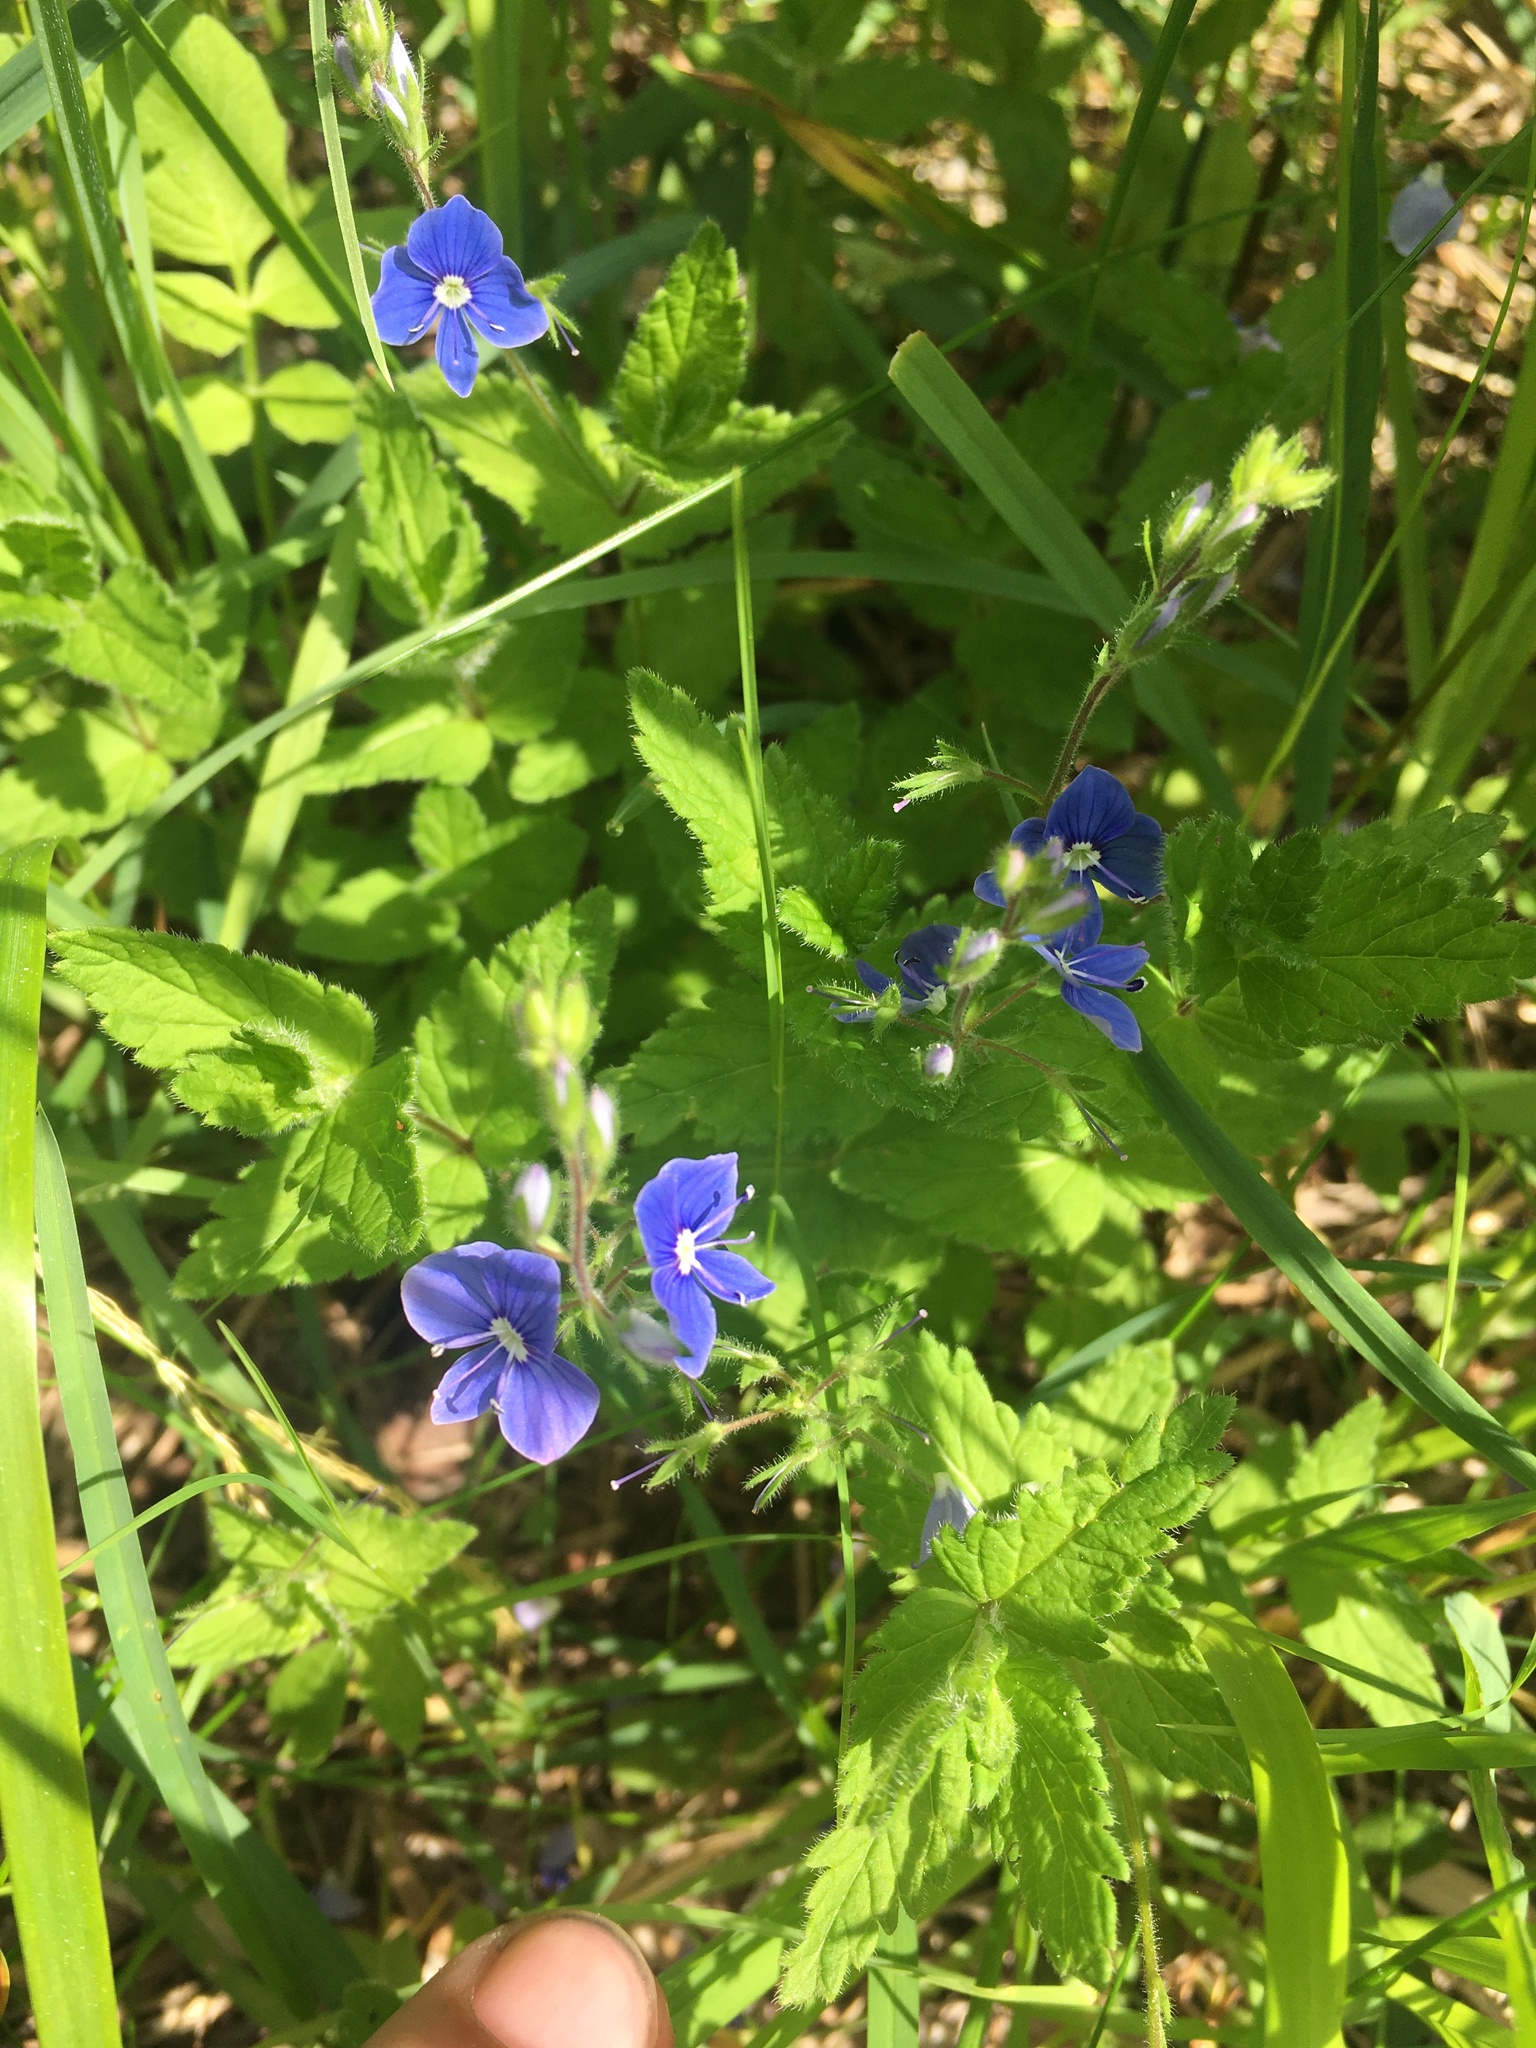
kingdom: Plantae
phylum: Tracheophyta
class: Magnoliopsida
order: Lamiales
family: Plantaginaceae
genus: Veronica
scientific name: Veronica chamaedrys
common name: Germander speedwell
